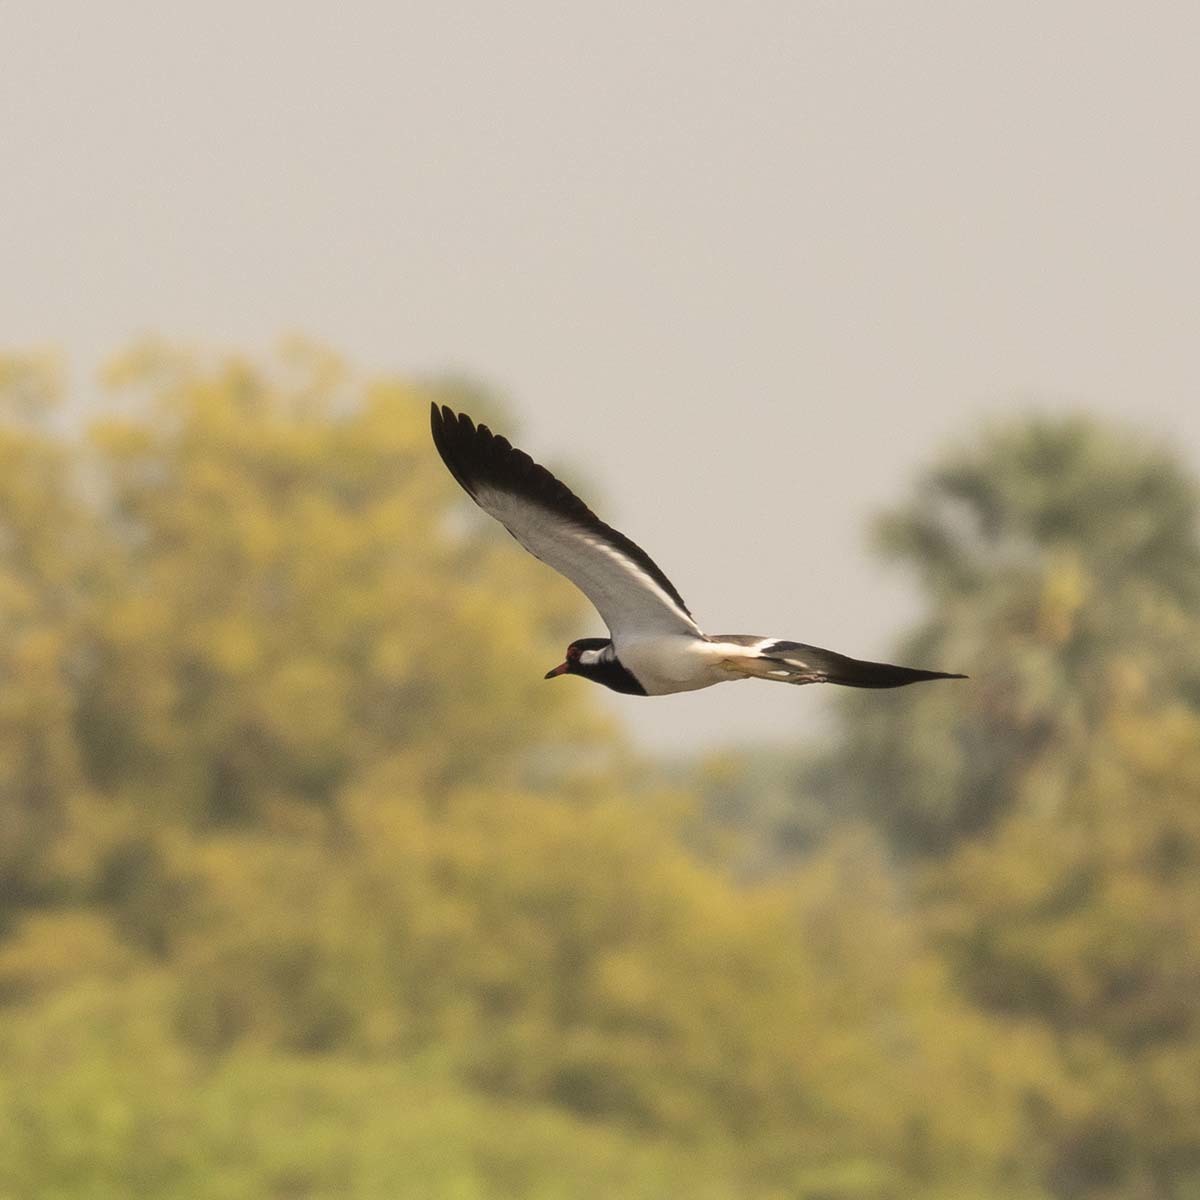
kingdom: Animalia
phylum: Chordata
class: Aves
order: Charadriiformes
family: Charadriidae
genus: Vanellus
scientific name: Vanellus indicus
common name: Red-wattled lapwing
